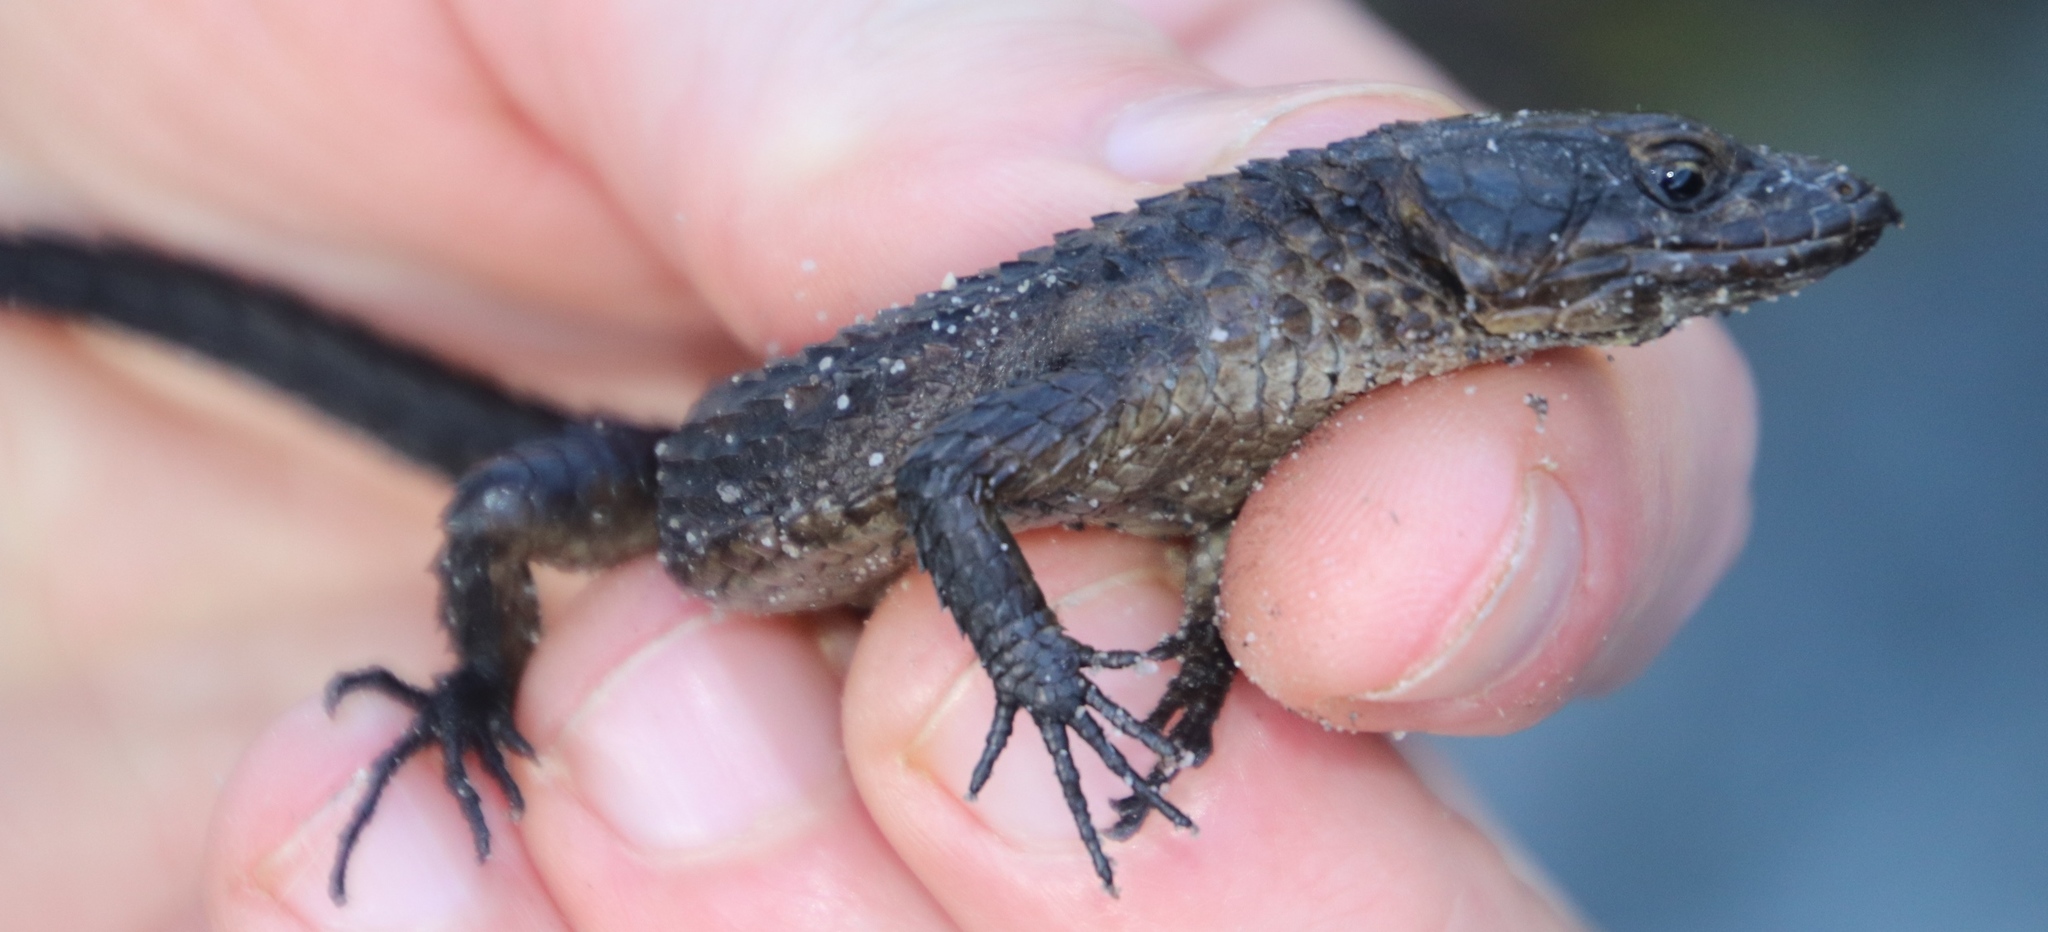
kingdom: Animalia
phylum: Chordata
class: Squamata
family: Cordylidae
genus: Cordylus
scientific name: Cordylus niger
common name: Black girdled lizard
